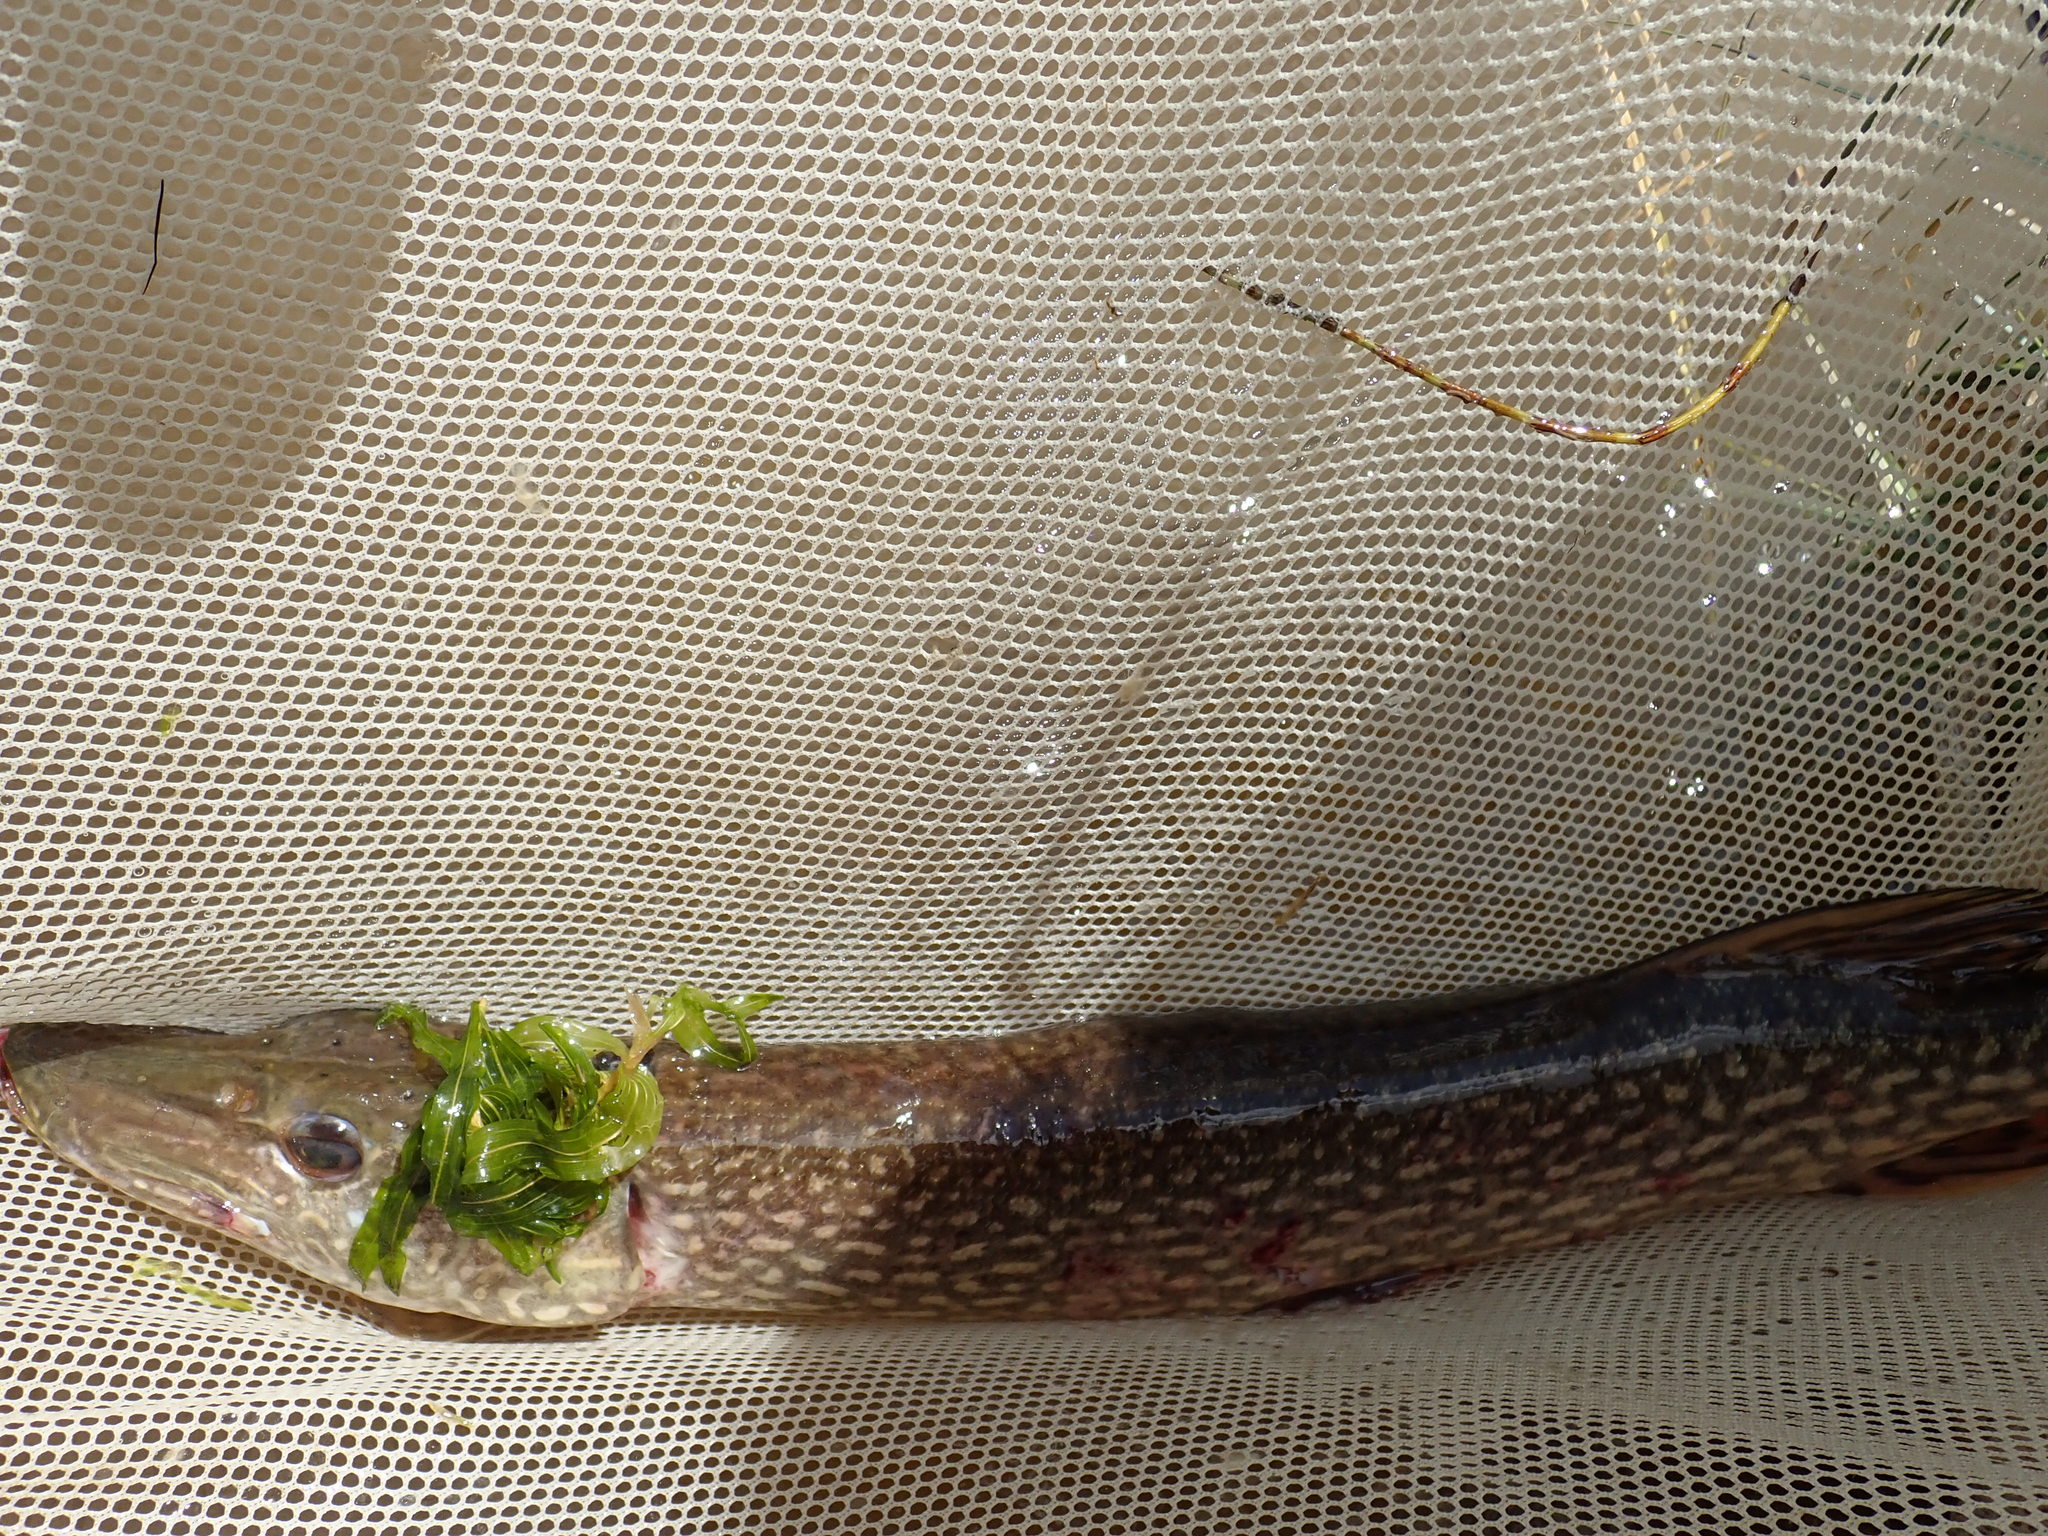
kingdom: Animalia
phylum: Chordata
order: Esociformes
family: Esocidae
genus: Esox
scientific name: Esox lucius
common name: Northern pike
